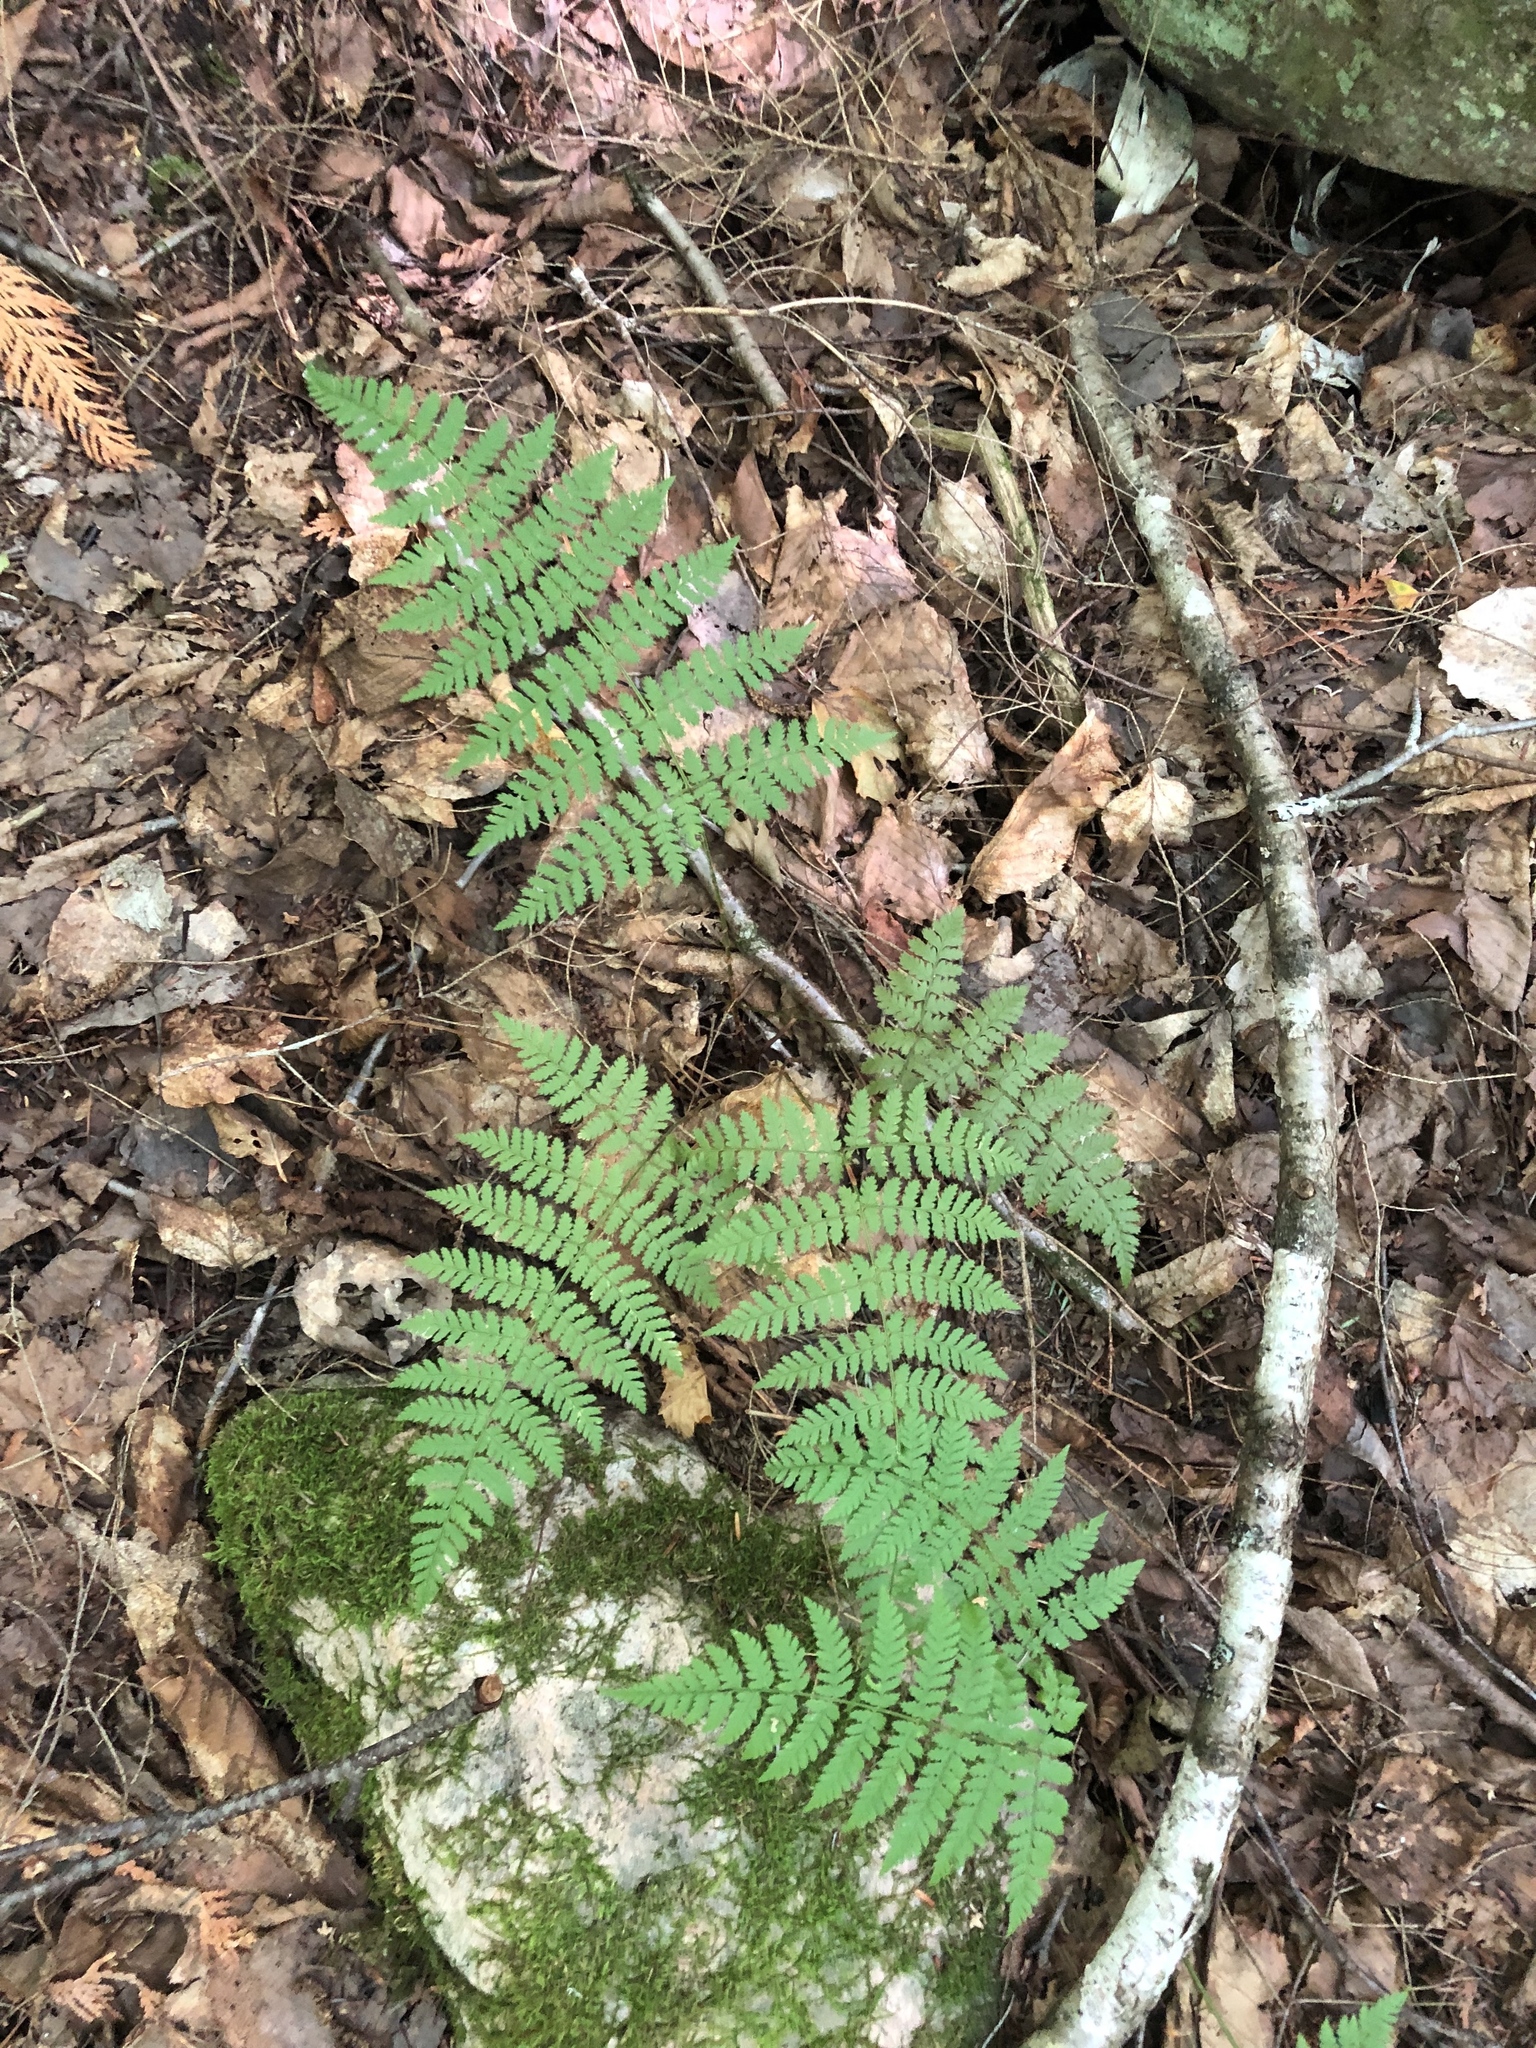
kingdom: Plantae
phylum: Tracheophyta
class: Polypodiopsida
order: Polypodiales
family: Dryopteridaceae
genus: Dryopteris
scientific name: Dryopteris intermedia
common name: Evergreen wood fern
